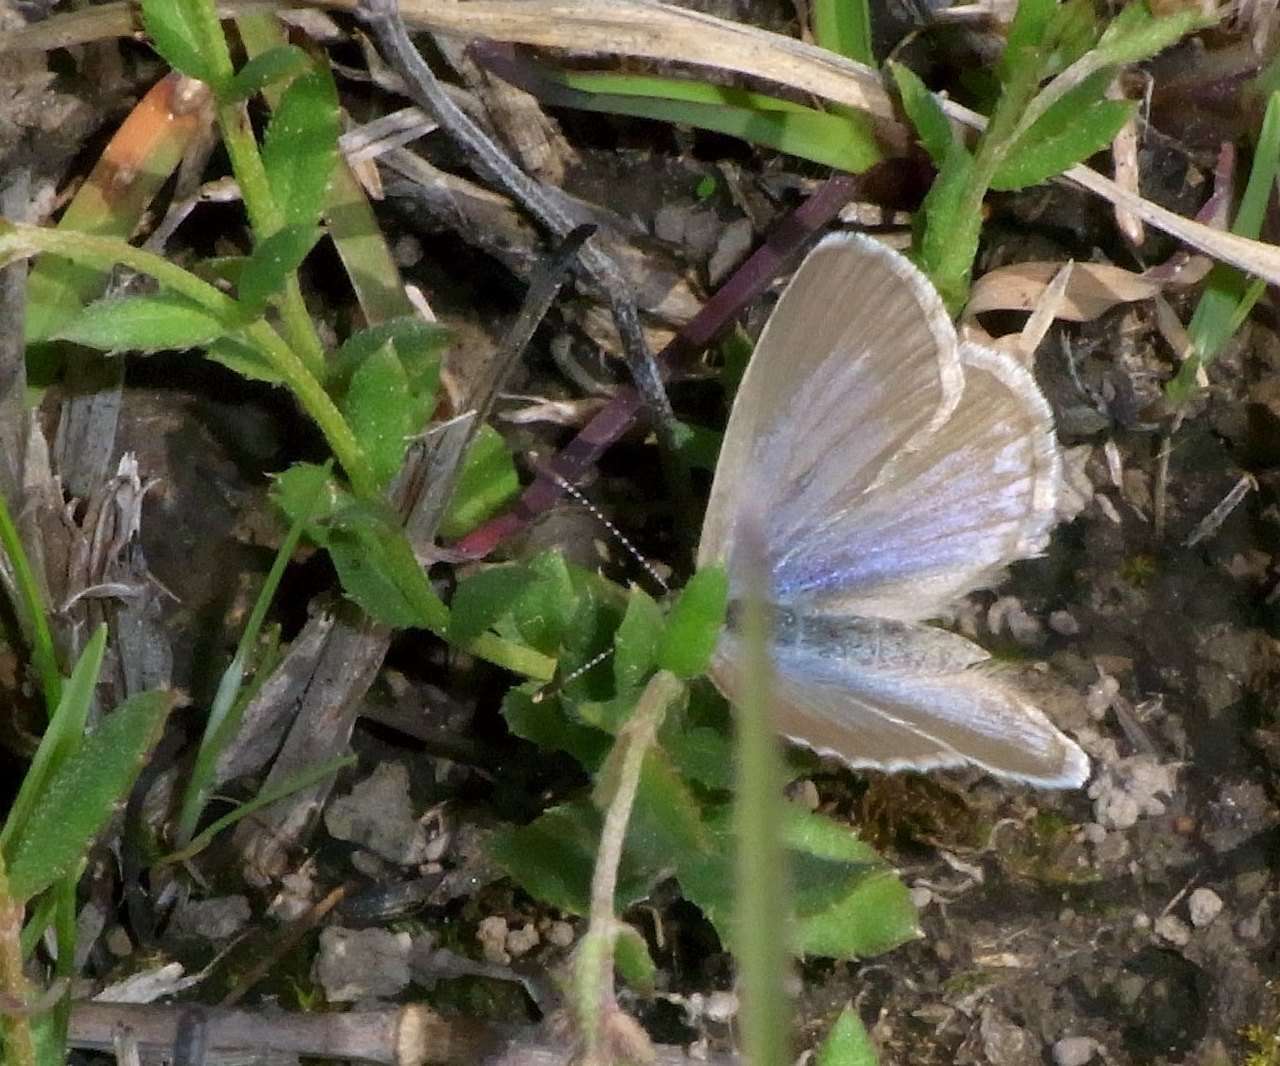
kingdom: Animalia
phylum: Arthropoda
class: Insecta
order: Lepidoptera
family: Lycaenidae
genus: Zizina
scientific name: Zizina labradus
